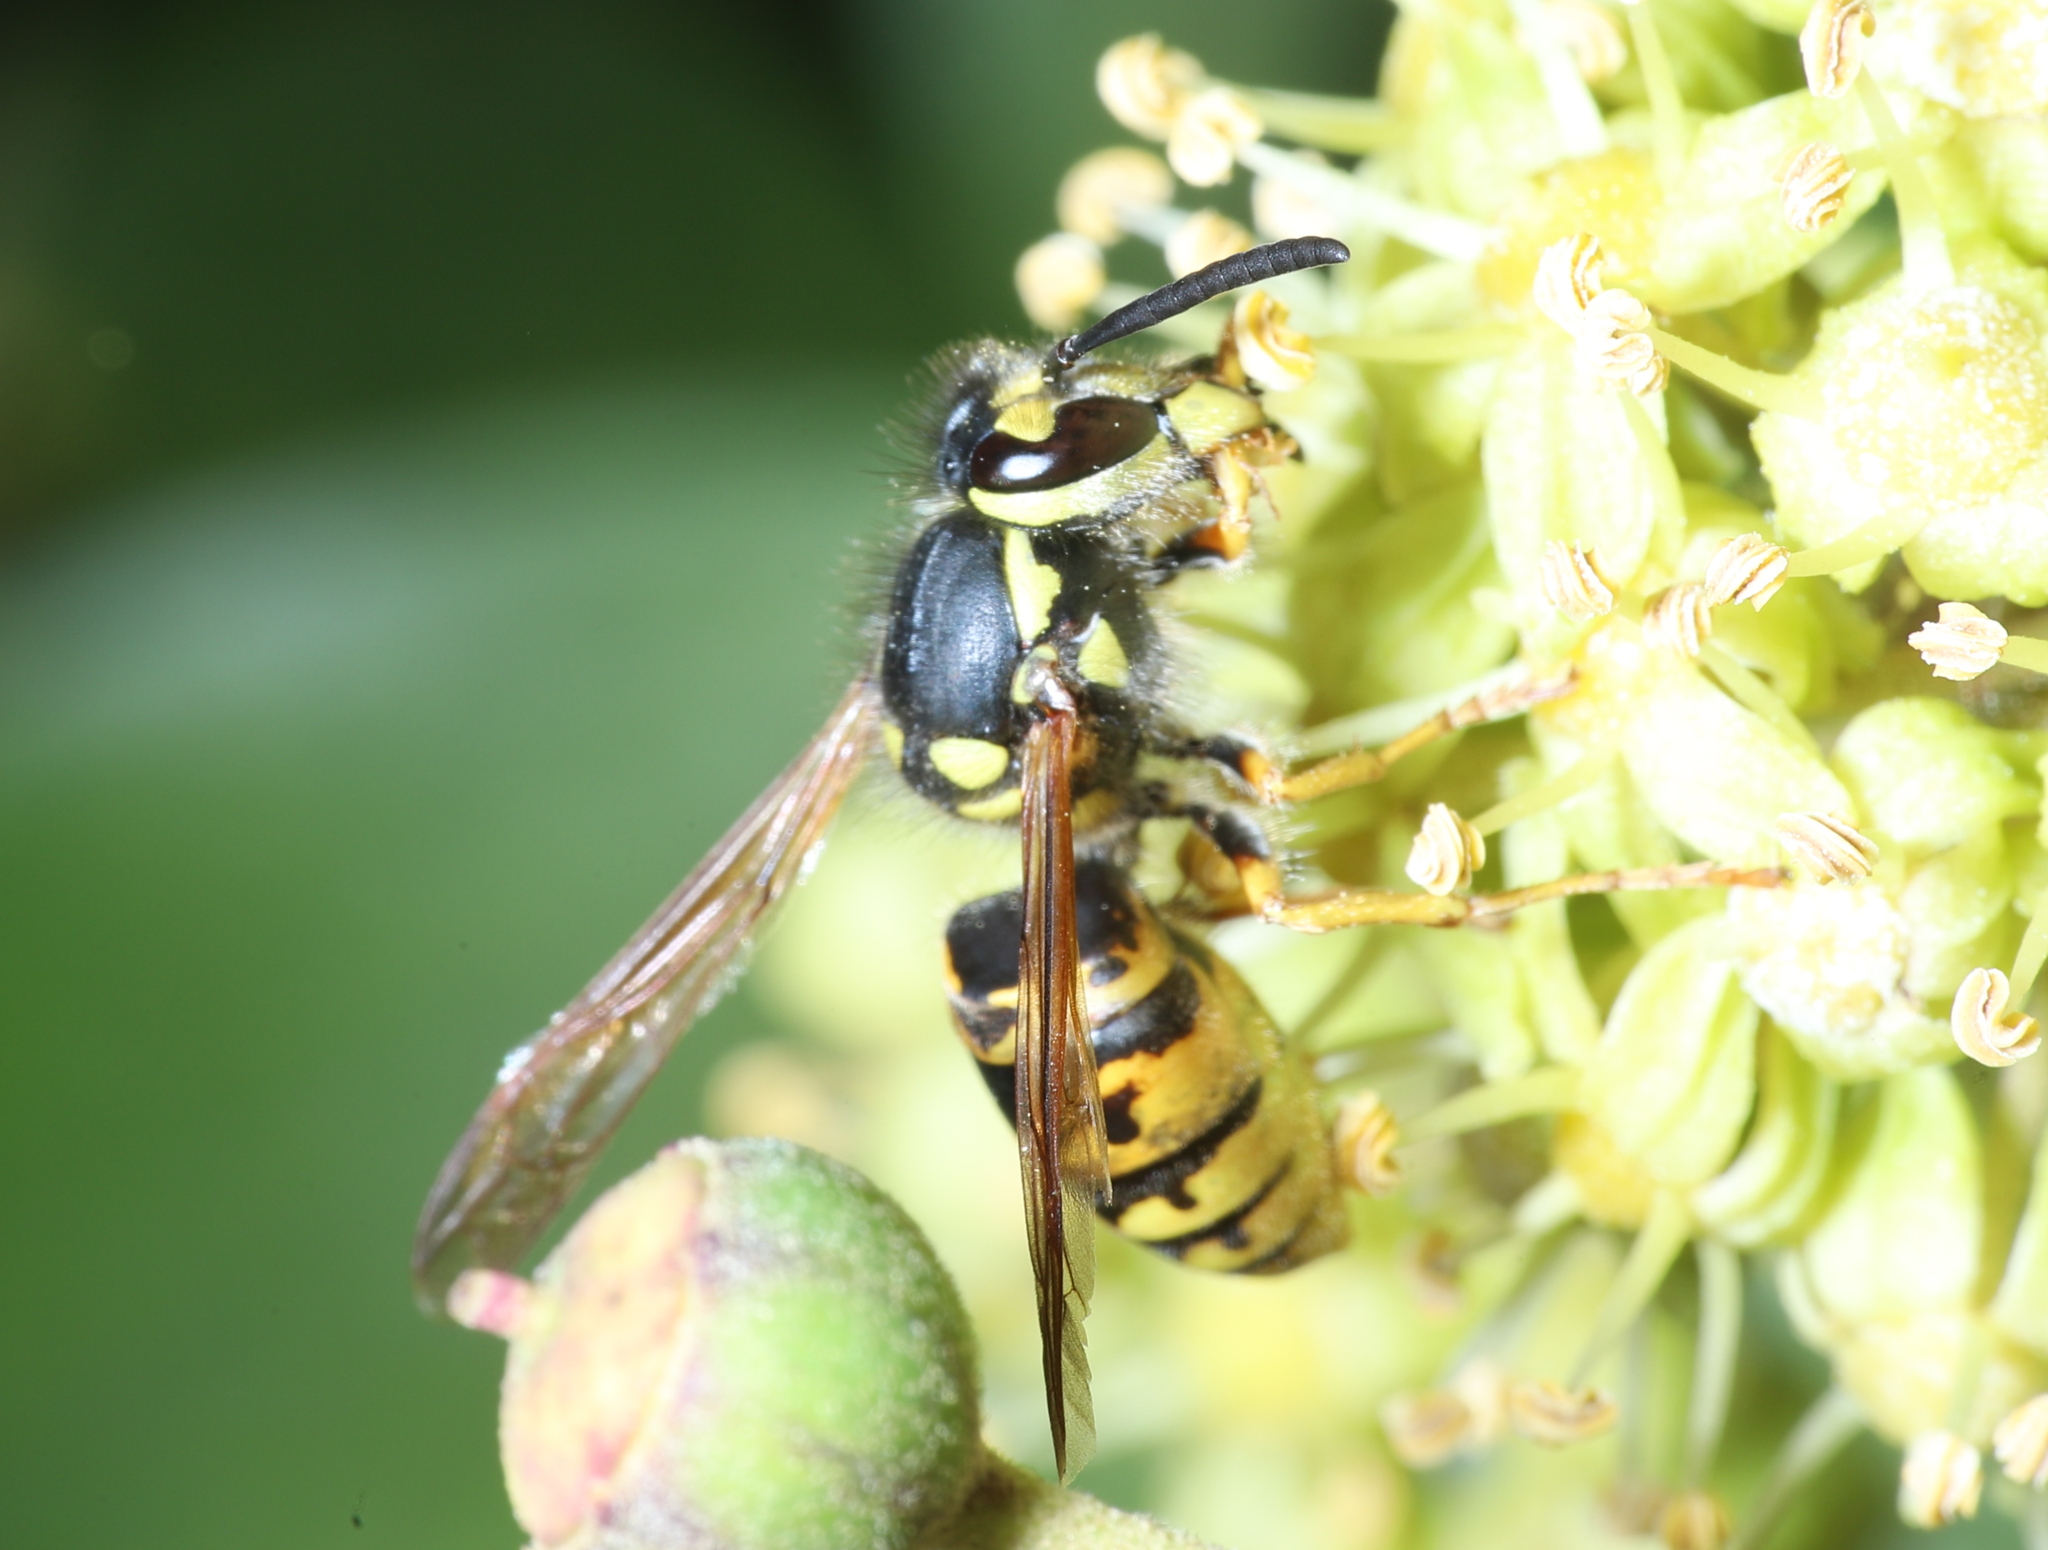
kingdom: Animalia
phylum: Arthropoda
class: Insecta
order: Hymenoptera
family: Vespidae
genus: Vespula
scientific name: Vespula germanica
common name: German wasp
